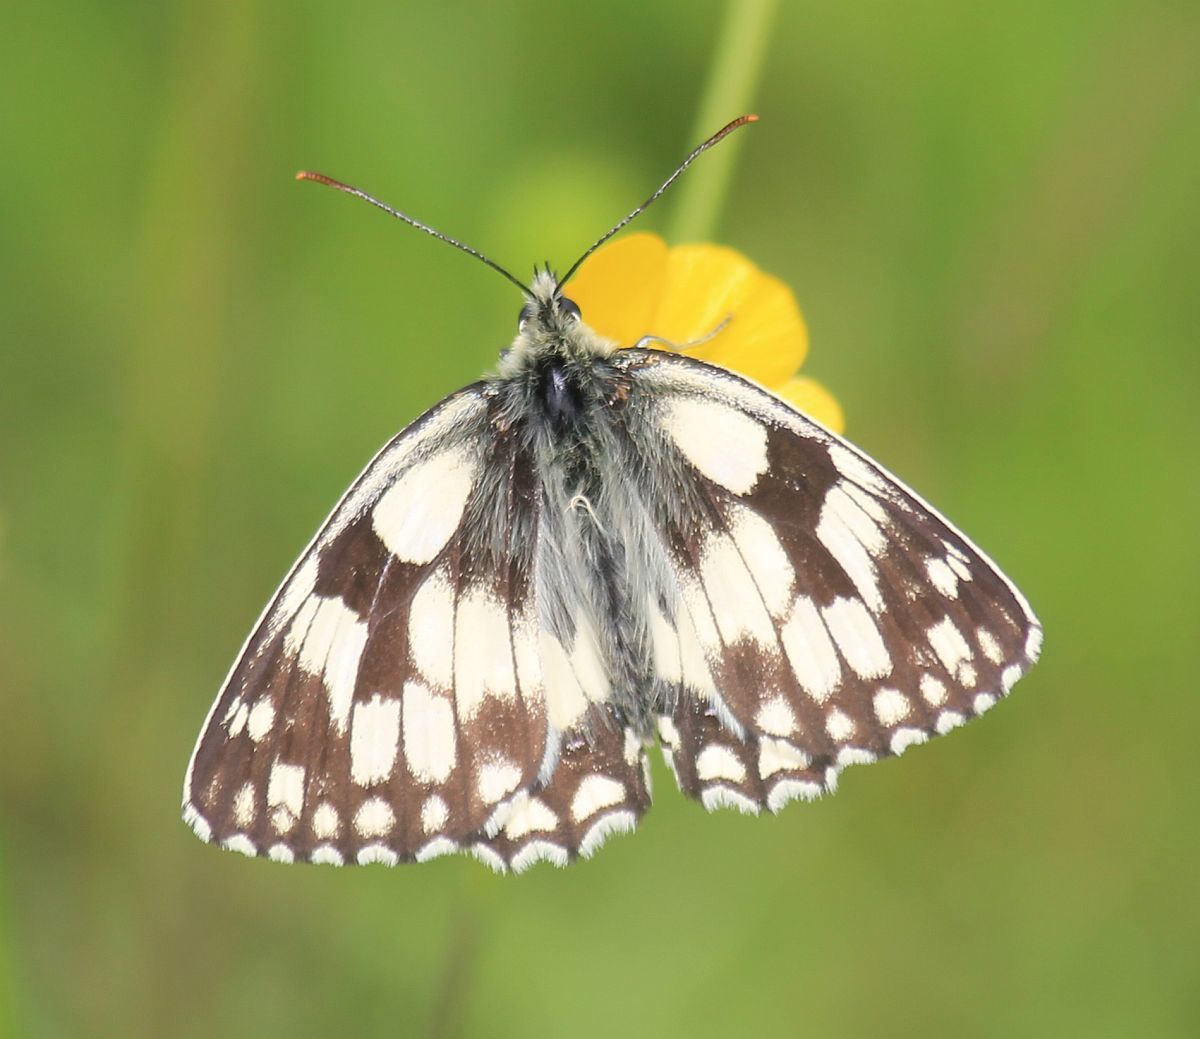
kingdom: Animalia
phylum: Arthropoda
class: Insecta
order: Lepidoptera
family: Nymphalidae
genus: Melanargia
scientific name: Melanargia galathea
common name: Marbled white
